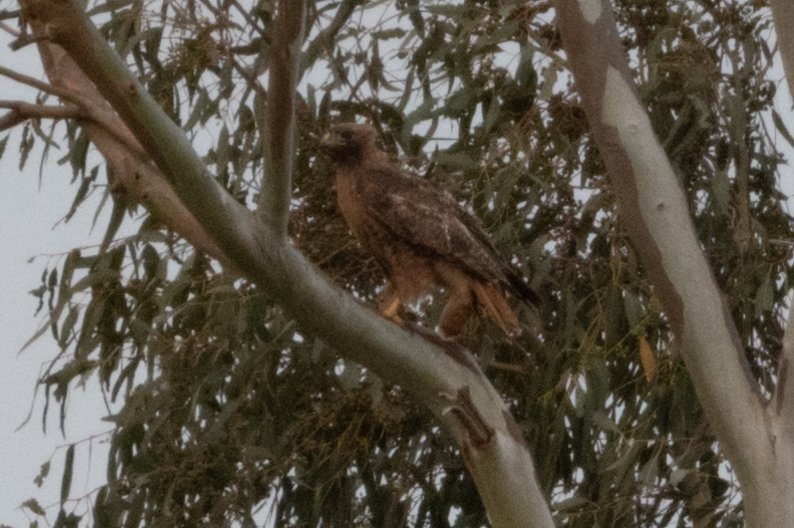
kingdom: Animalia
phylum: Chordata
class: Aves
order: Accipitriformes
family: Accipitridae
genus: Buteo
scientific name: Buteo jamaicensis
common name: Red-tailed hawk
